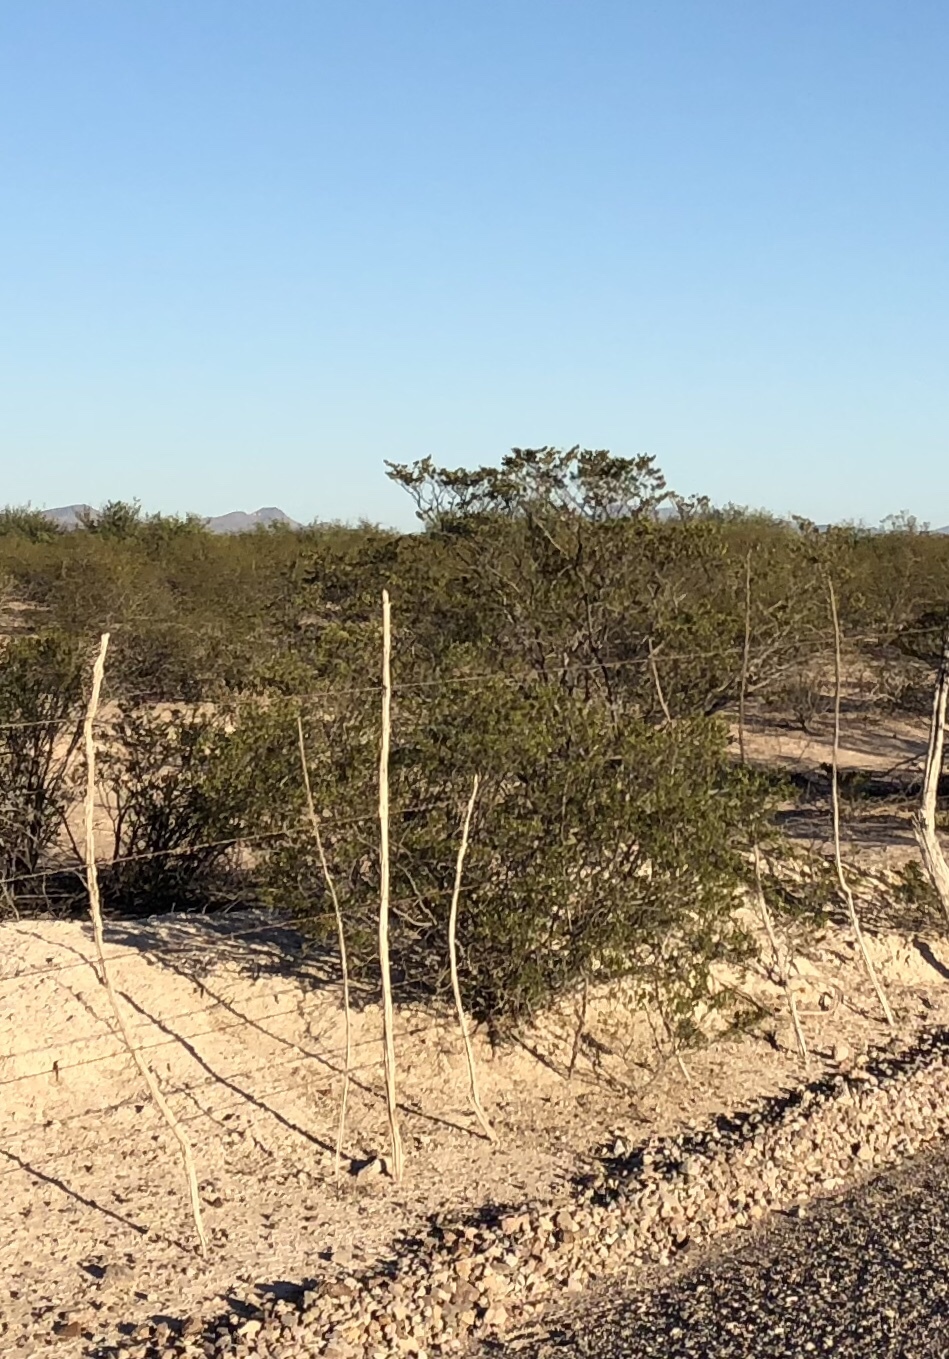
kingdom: Plantae
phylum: Tracheophyta
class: Magnoliopsida
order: Zygophyllales
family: Zygophyllaceae
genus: Larrea
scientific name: Larrea tridentata
